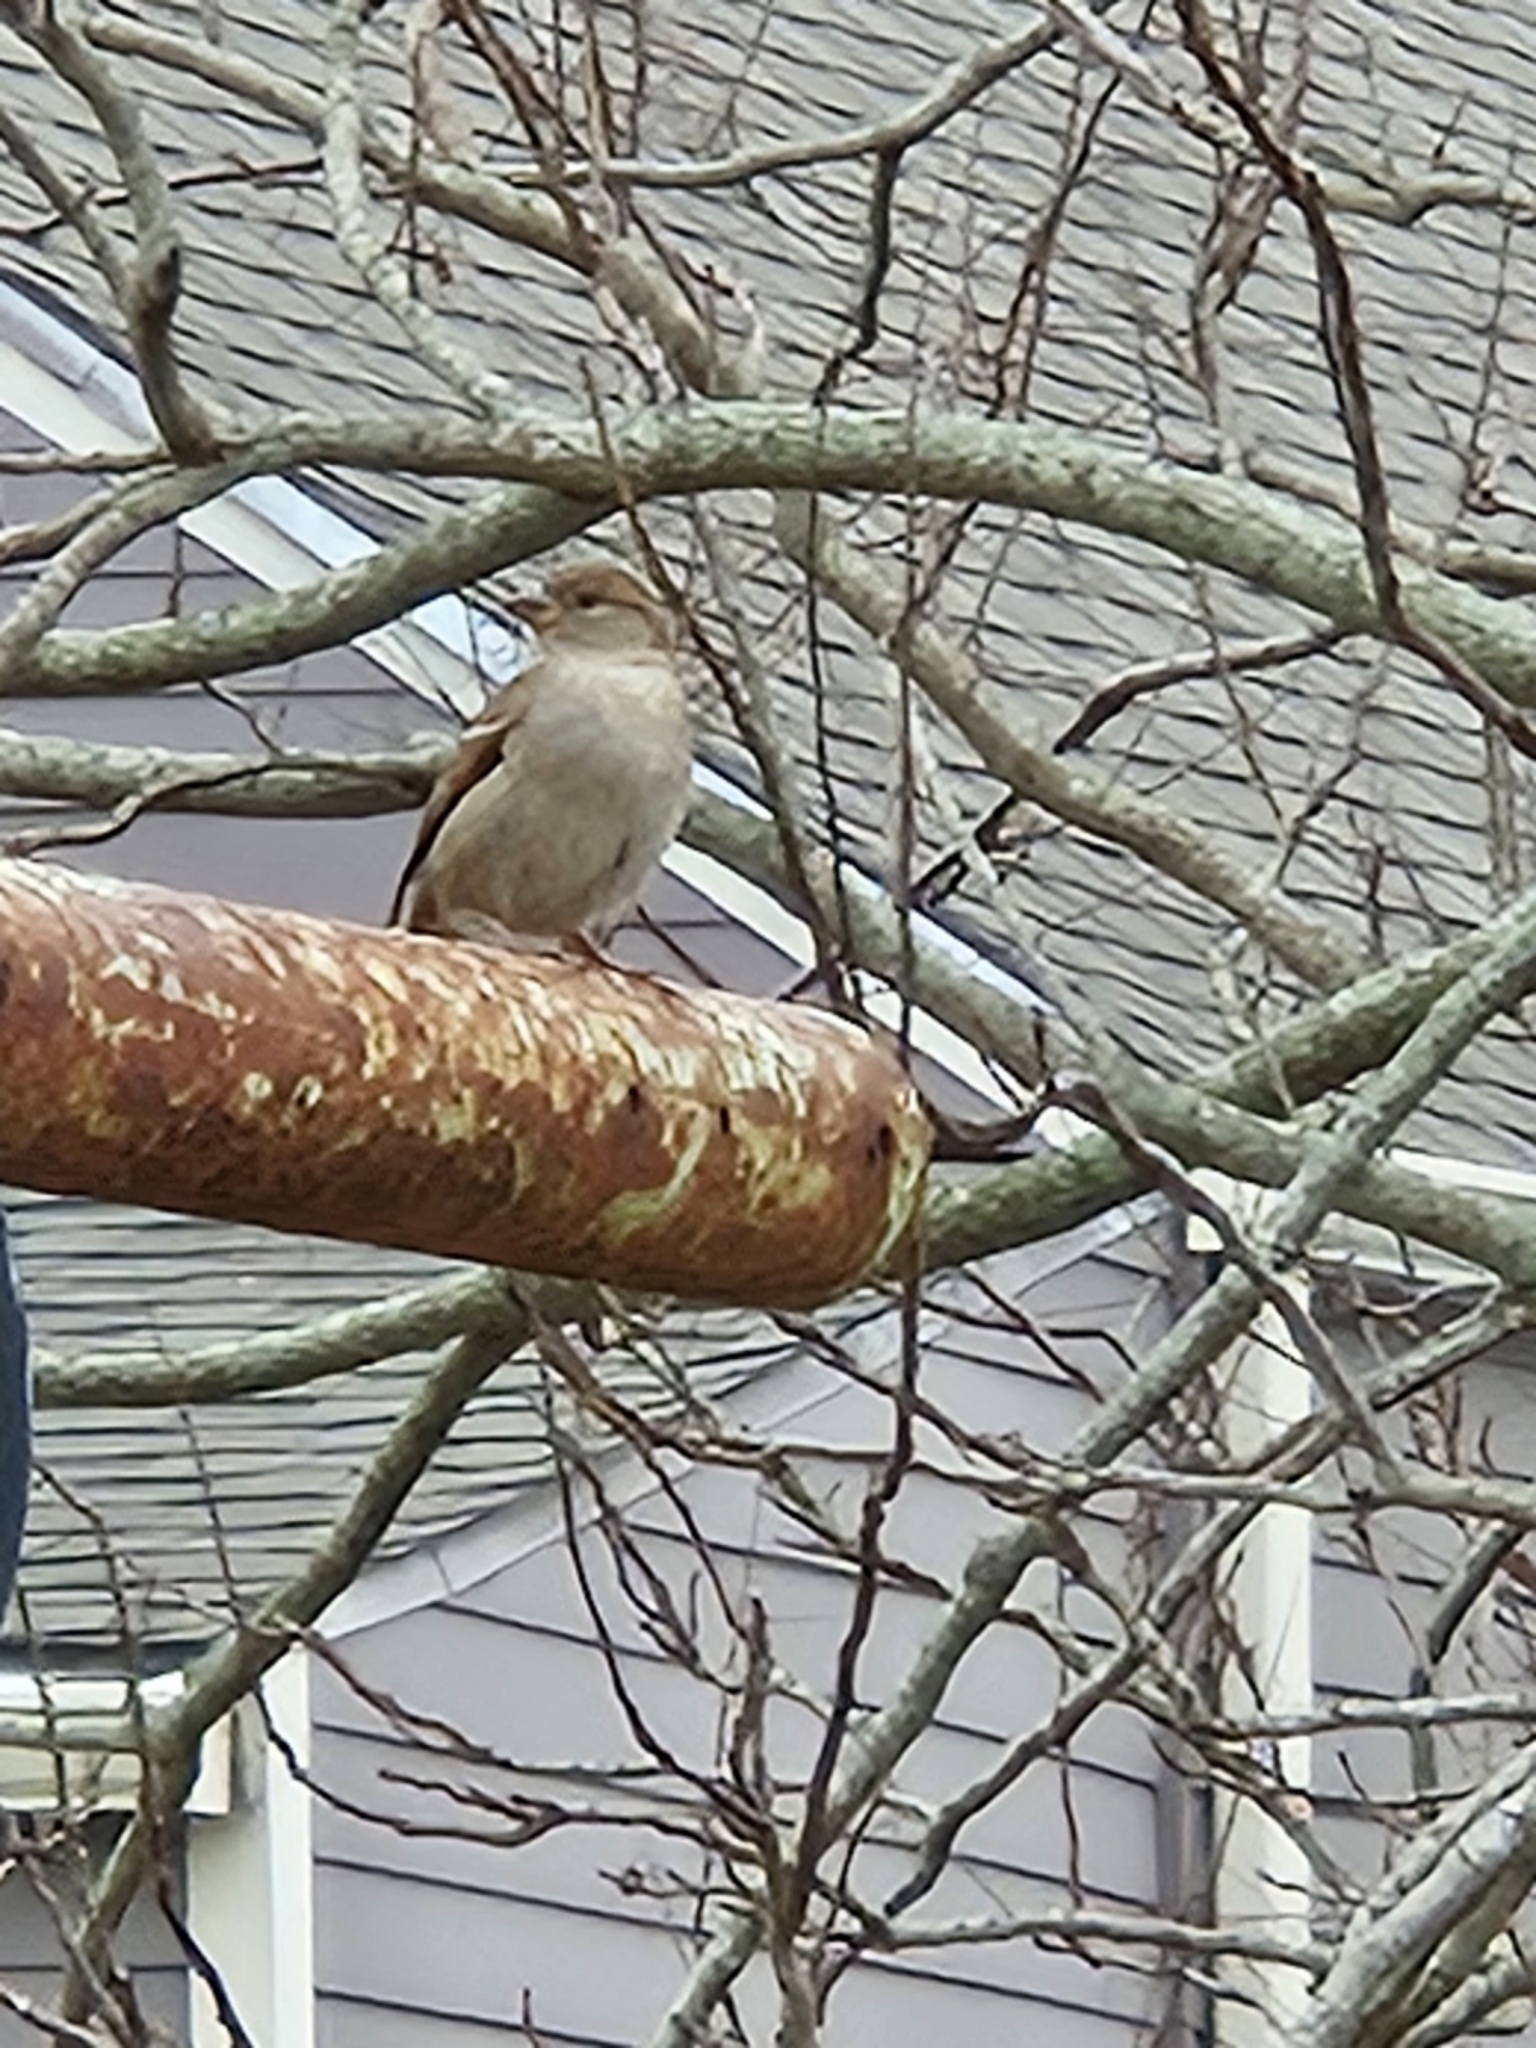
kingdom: Animalia
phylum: Chordata
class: Aves
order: Passeriformes
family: Passeridae
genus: Passer
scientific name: Passer domesticus
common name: House sparrow
